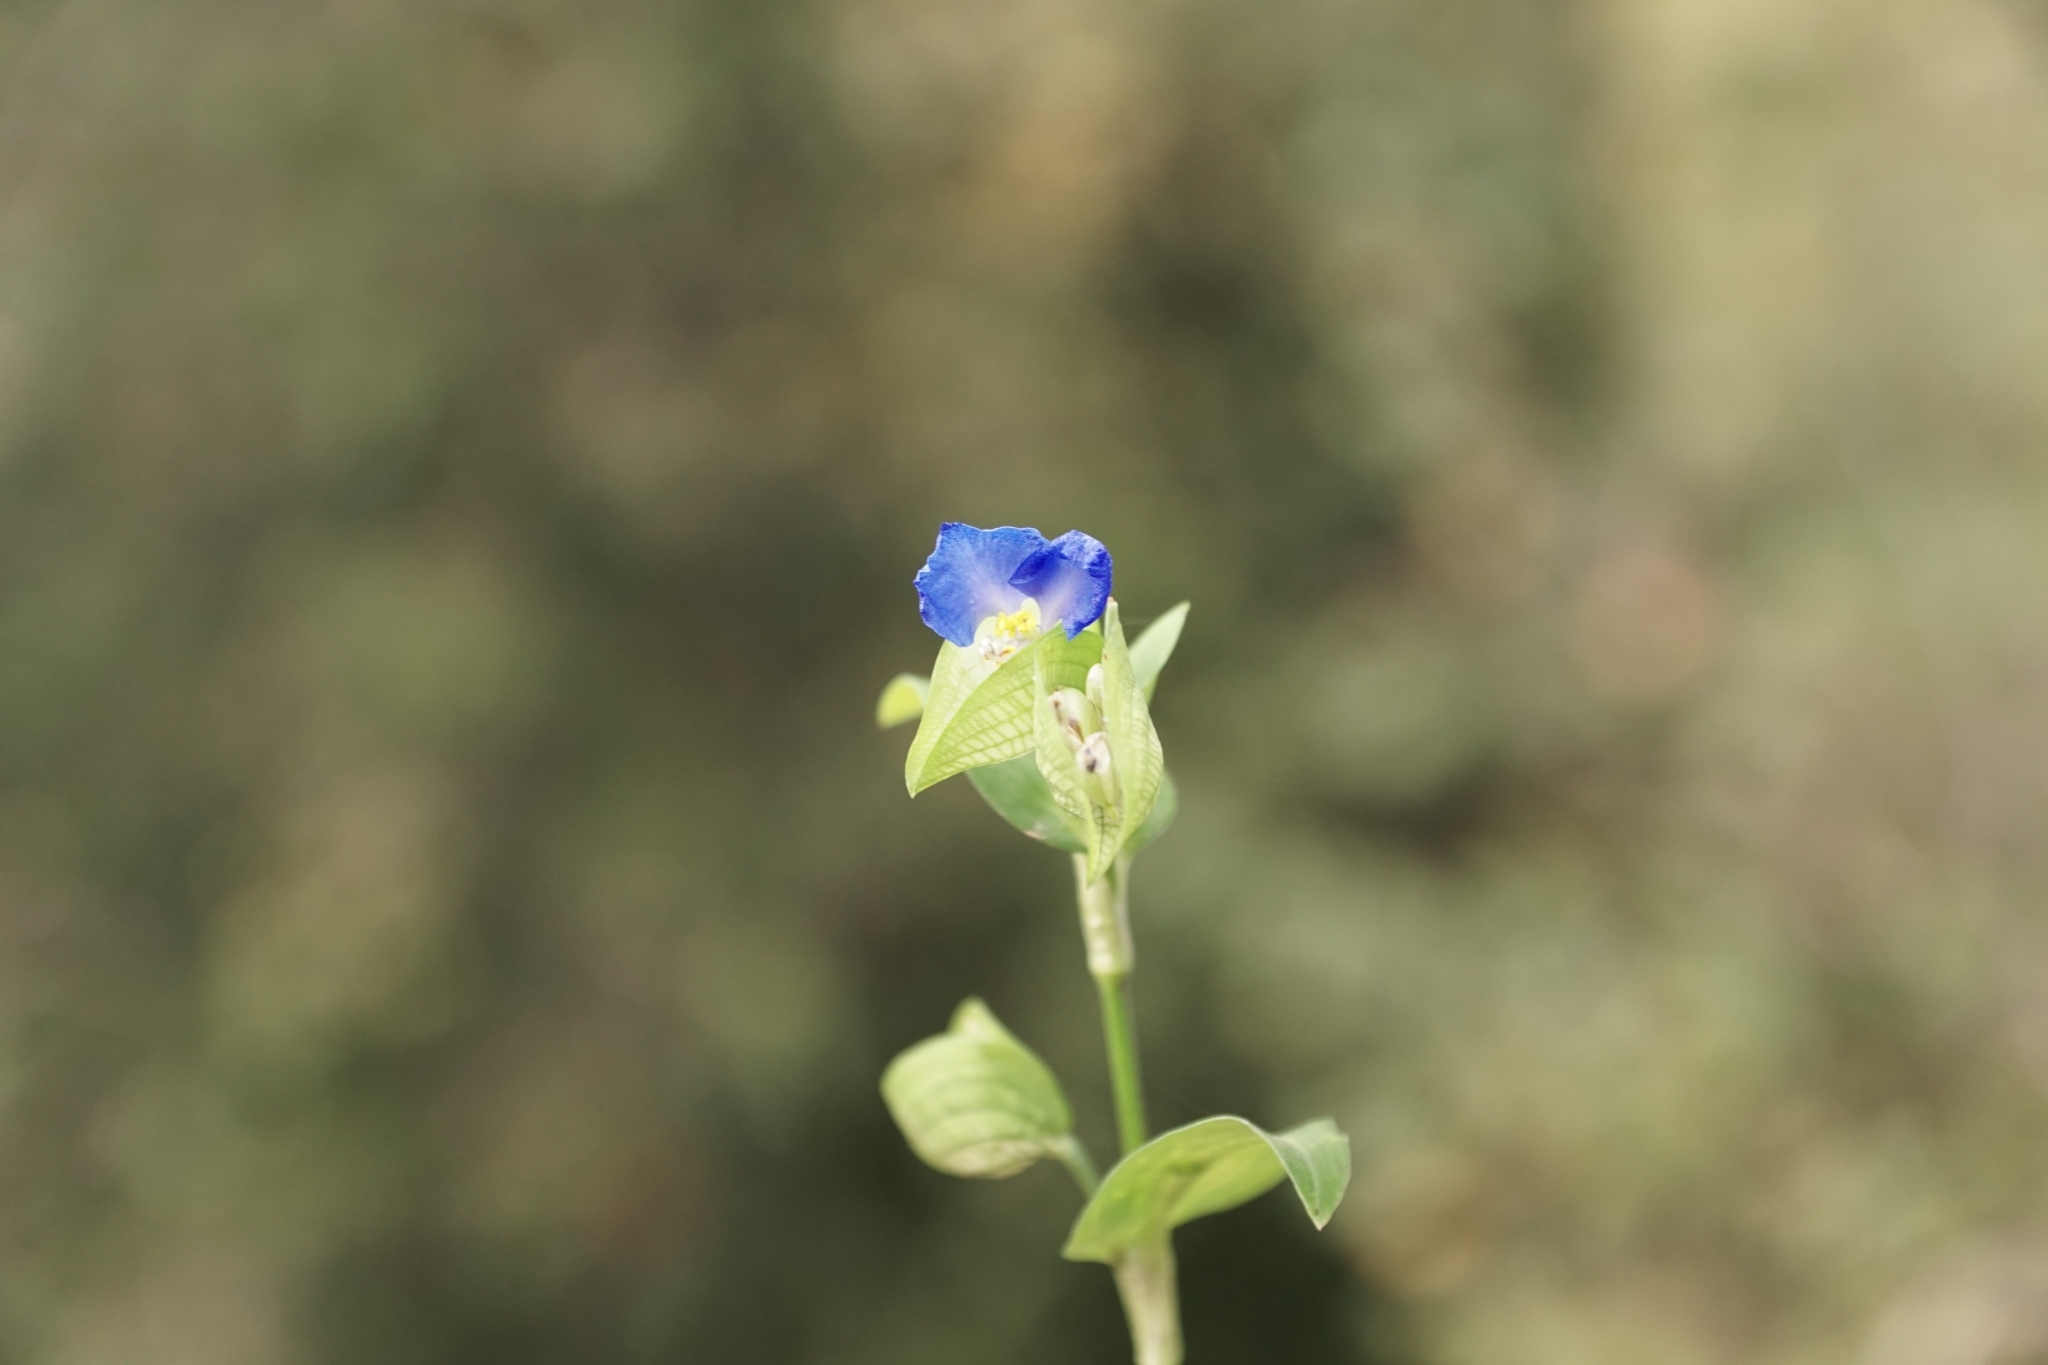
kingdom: Plantae
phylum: Tracheophyta
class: Liliopsida
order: Commelinales
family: Commelinaceae
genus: Commelina
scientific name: Commelina communis
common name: Asiatic dayflower
